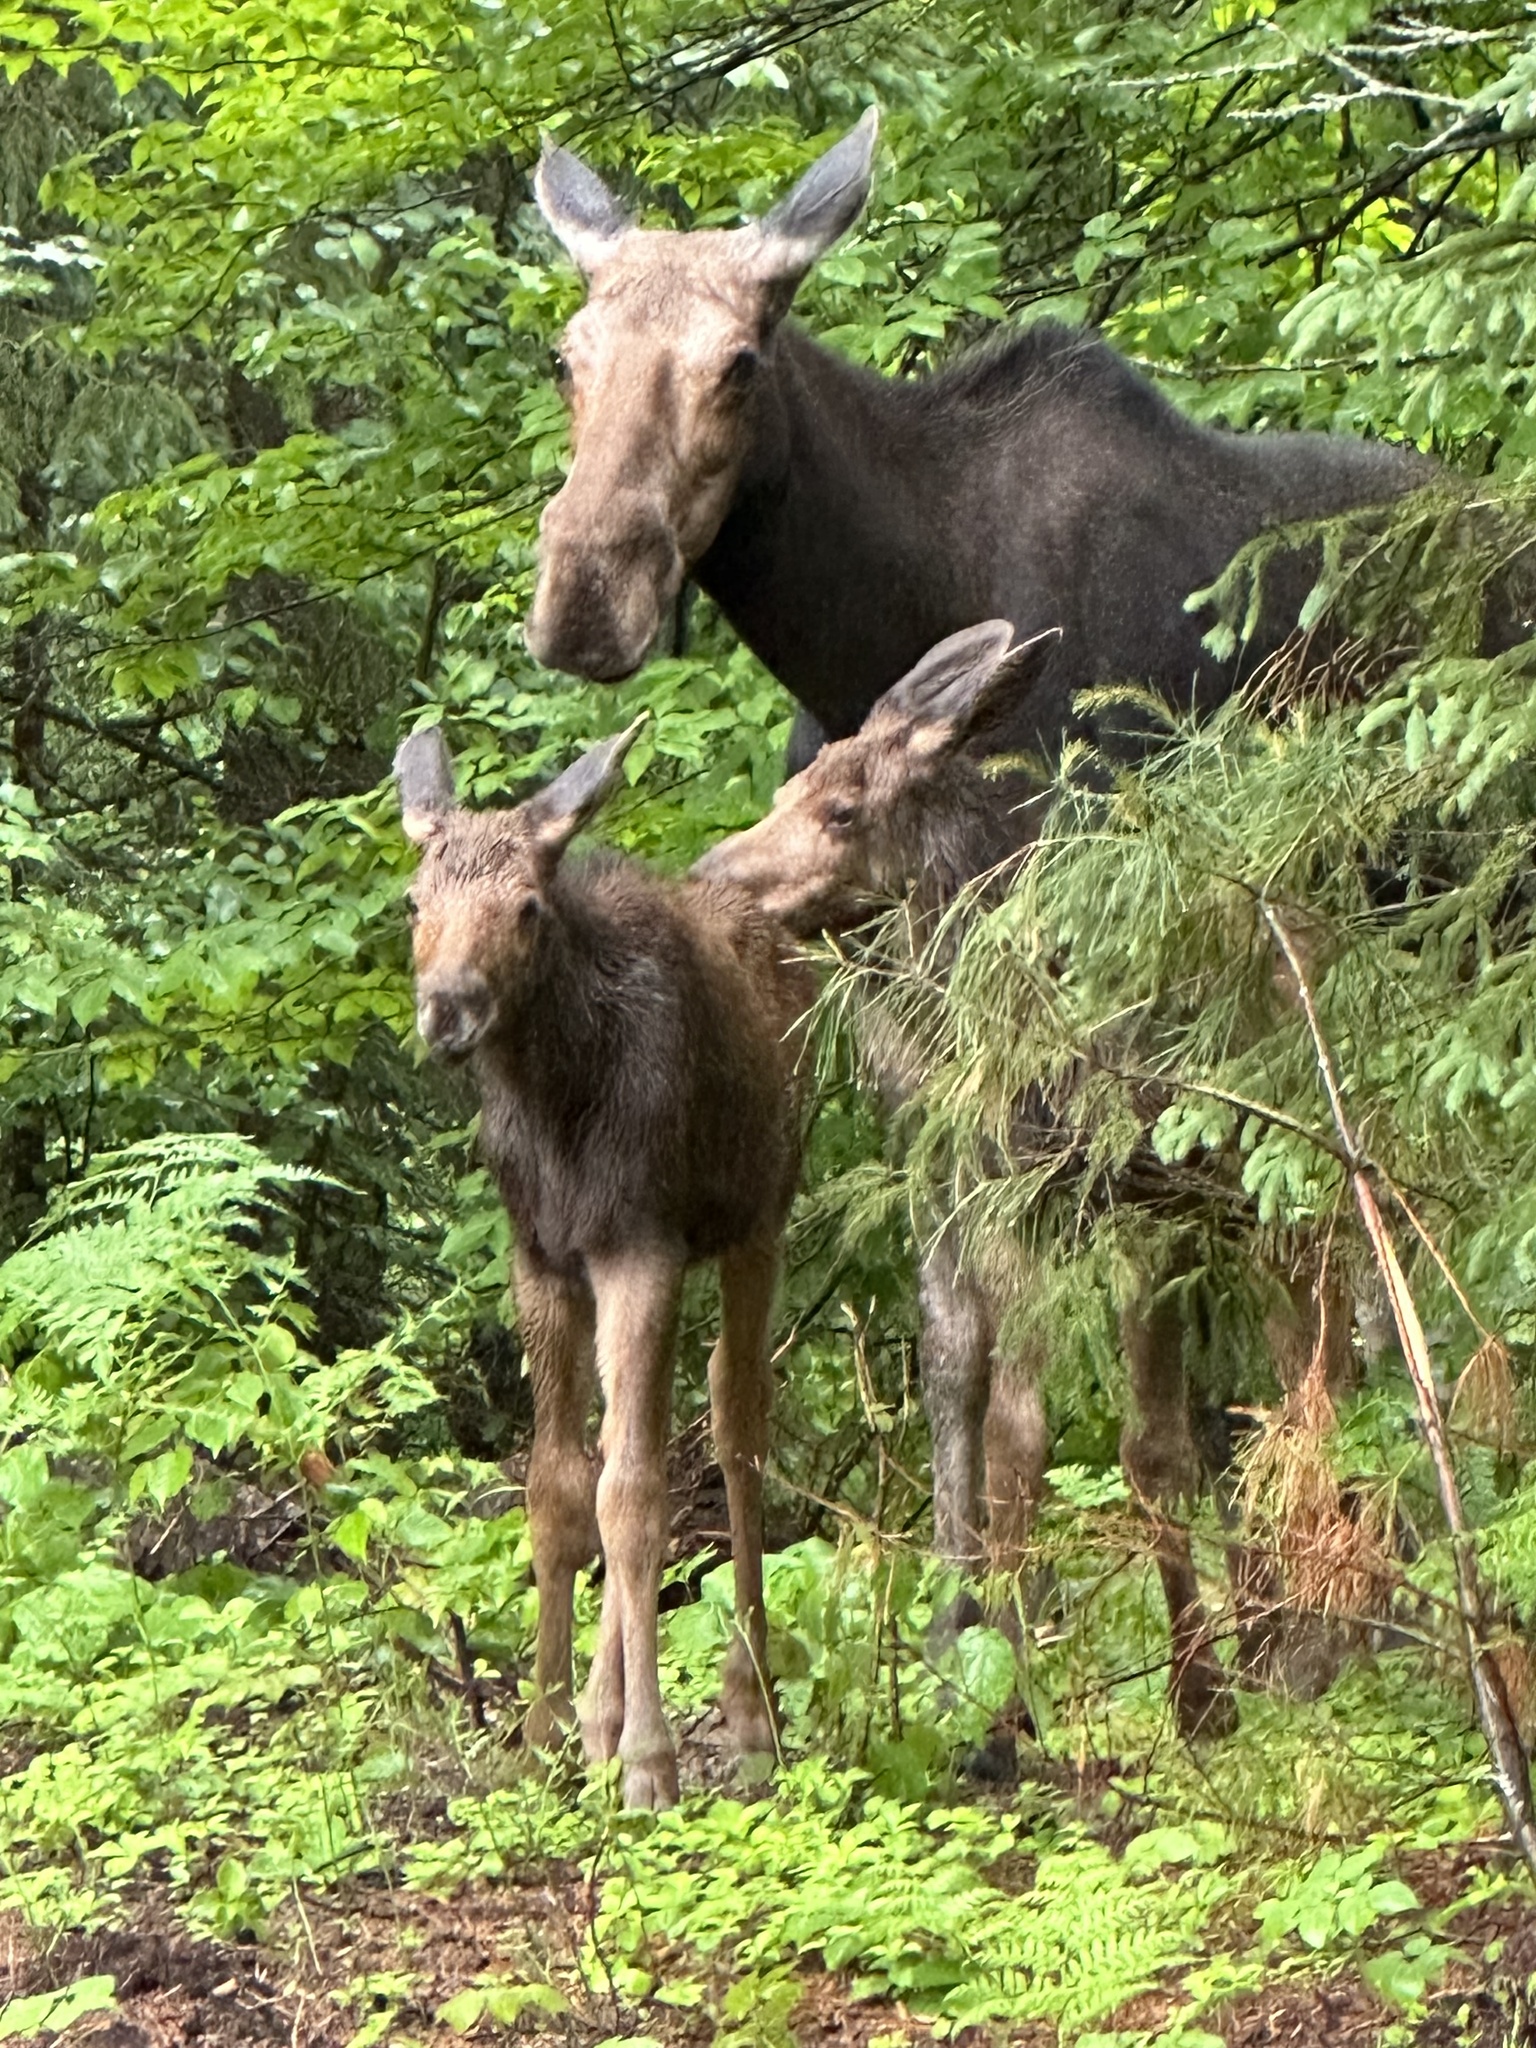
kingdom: Animalia
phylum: Chordata
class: Mammalia
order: Artiodactyla
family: Cervidae
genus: Alces
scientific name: Alces alces
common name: Moose
